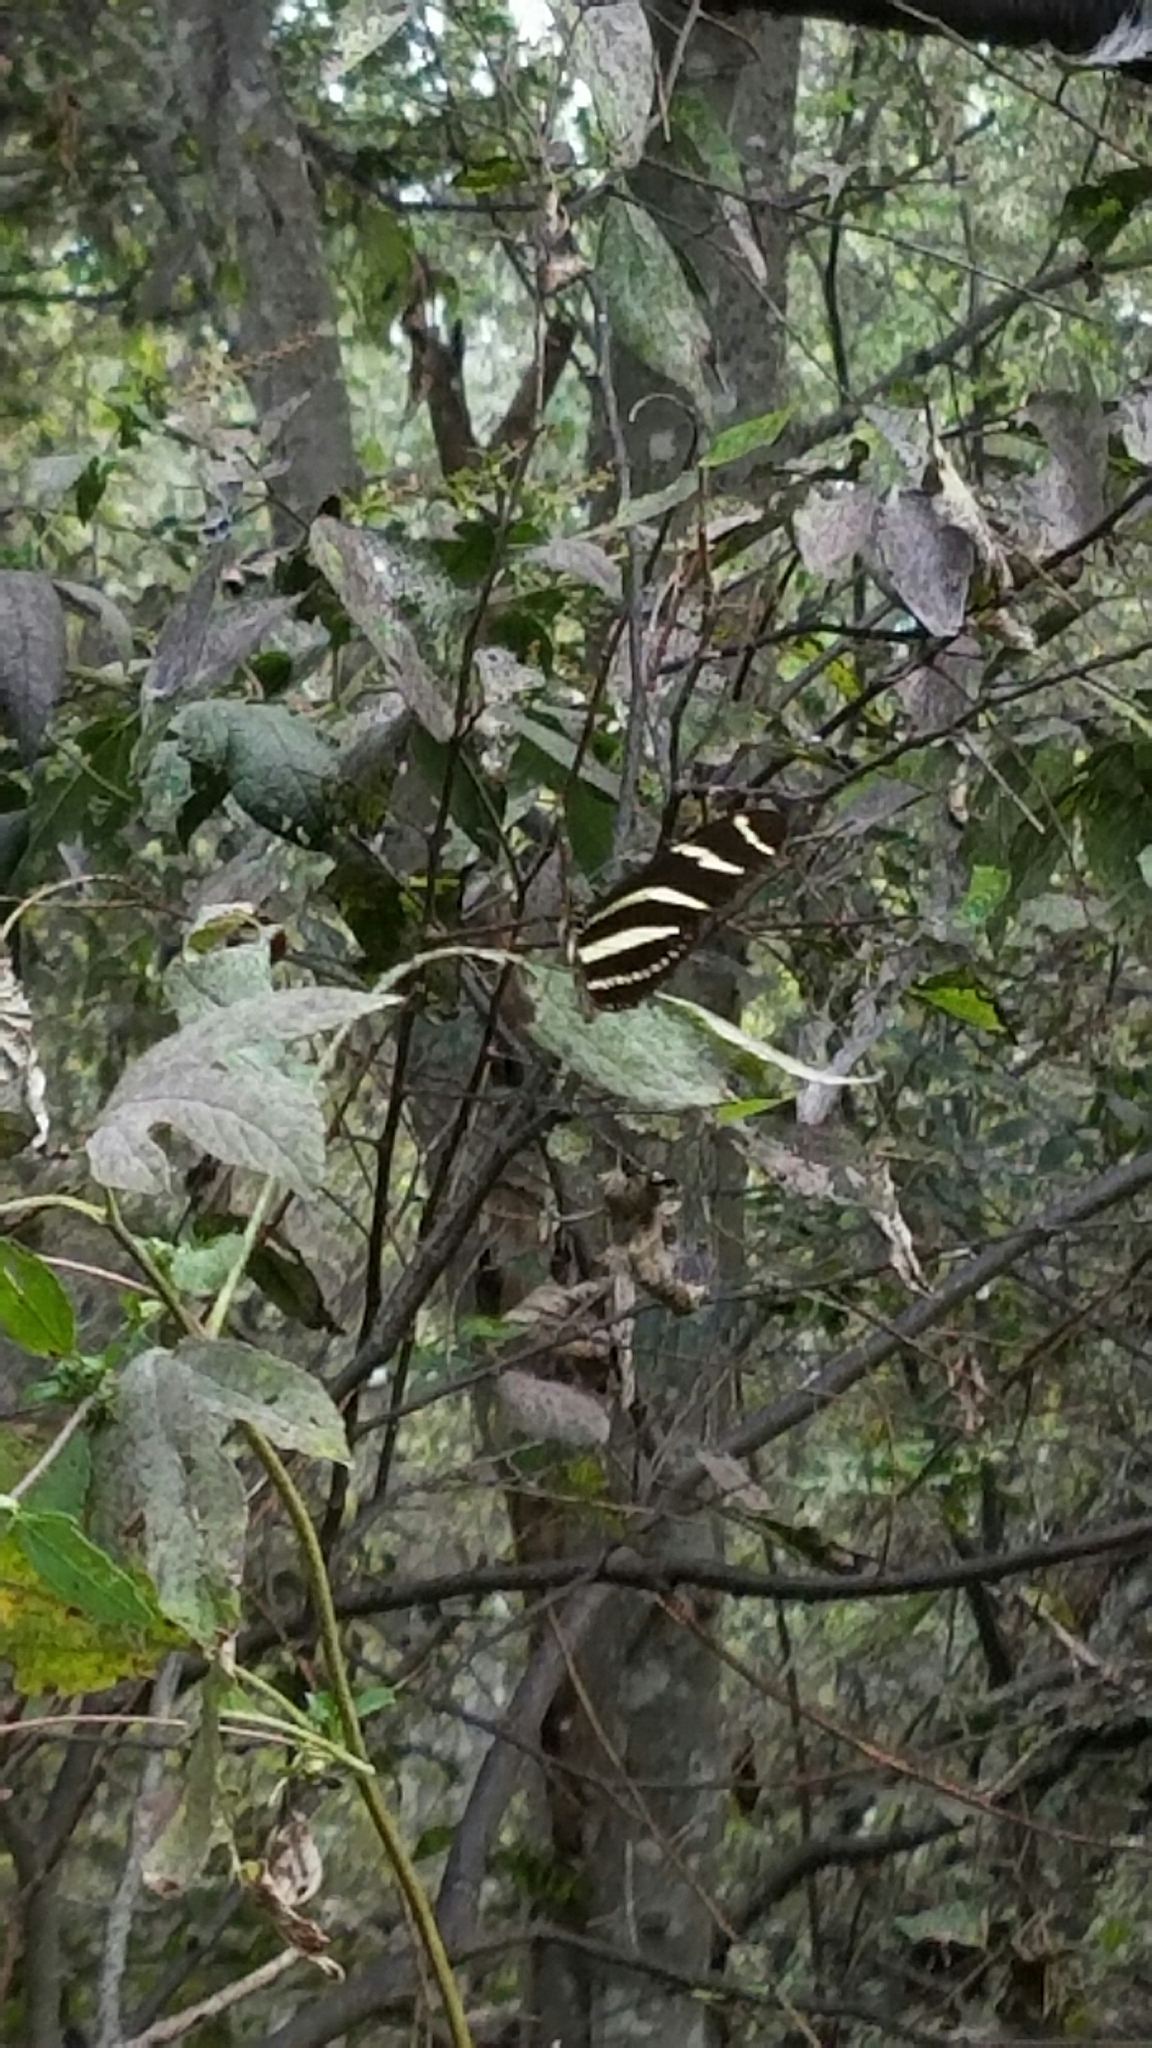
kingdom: Animalia
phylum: Arthropoda
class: Insecta
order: Lepidoptera
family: Nymphalidae
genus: Heliconius
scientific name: Heliconius charithonia
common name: Zebra long wing
